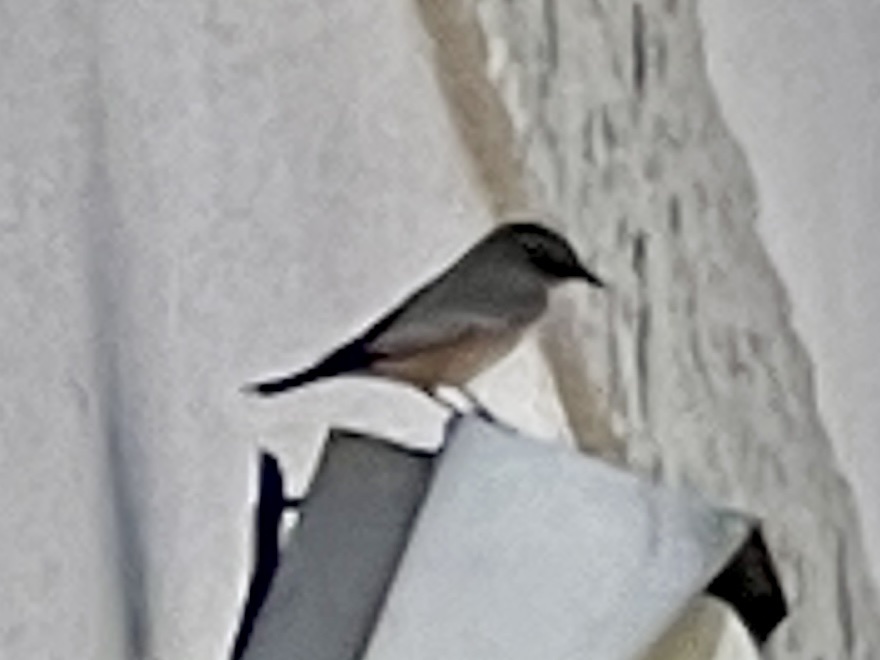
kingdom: Animalia
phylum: Chordata
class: Aves
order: Passeriformes
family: Tyrannidae
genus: Sayornis
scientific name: Sayornis saya
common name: Say's phoebe
